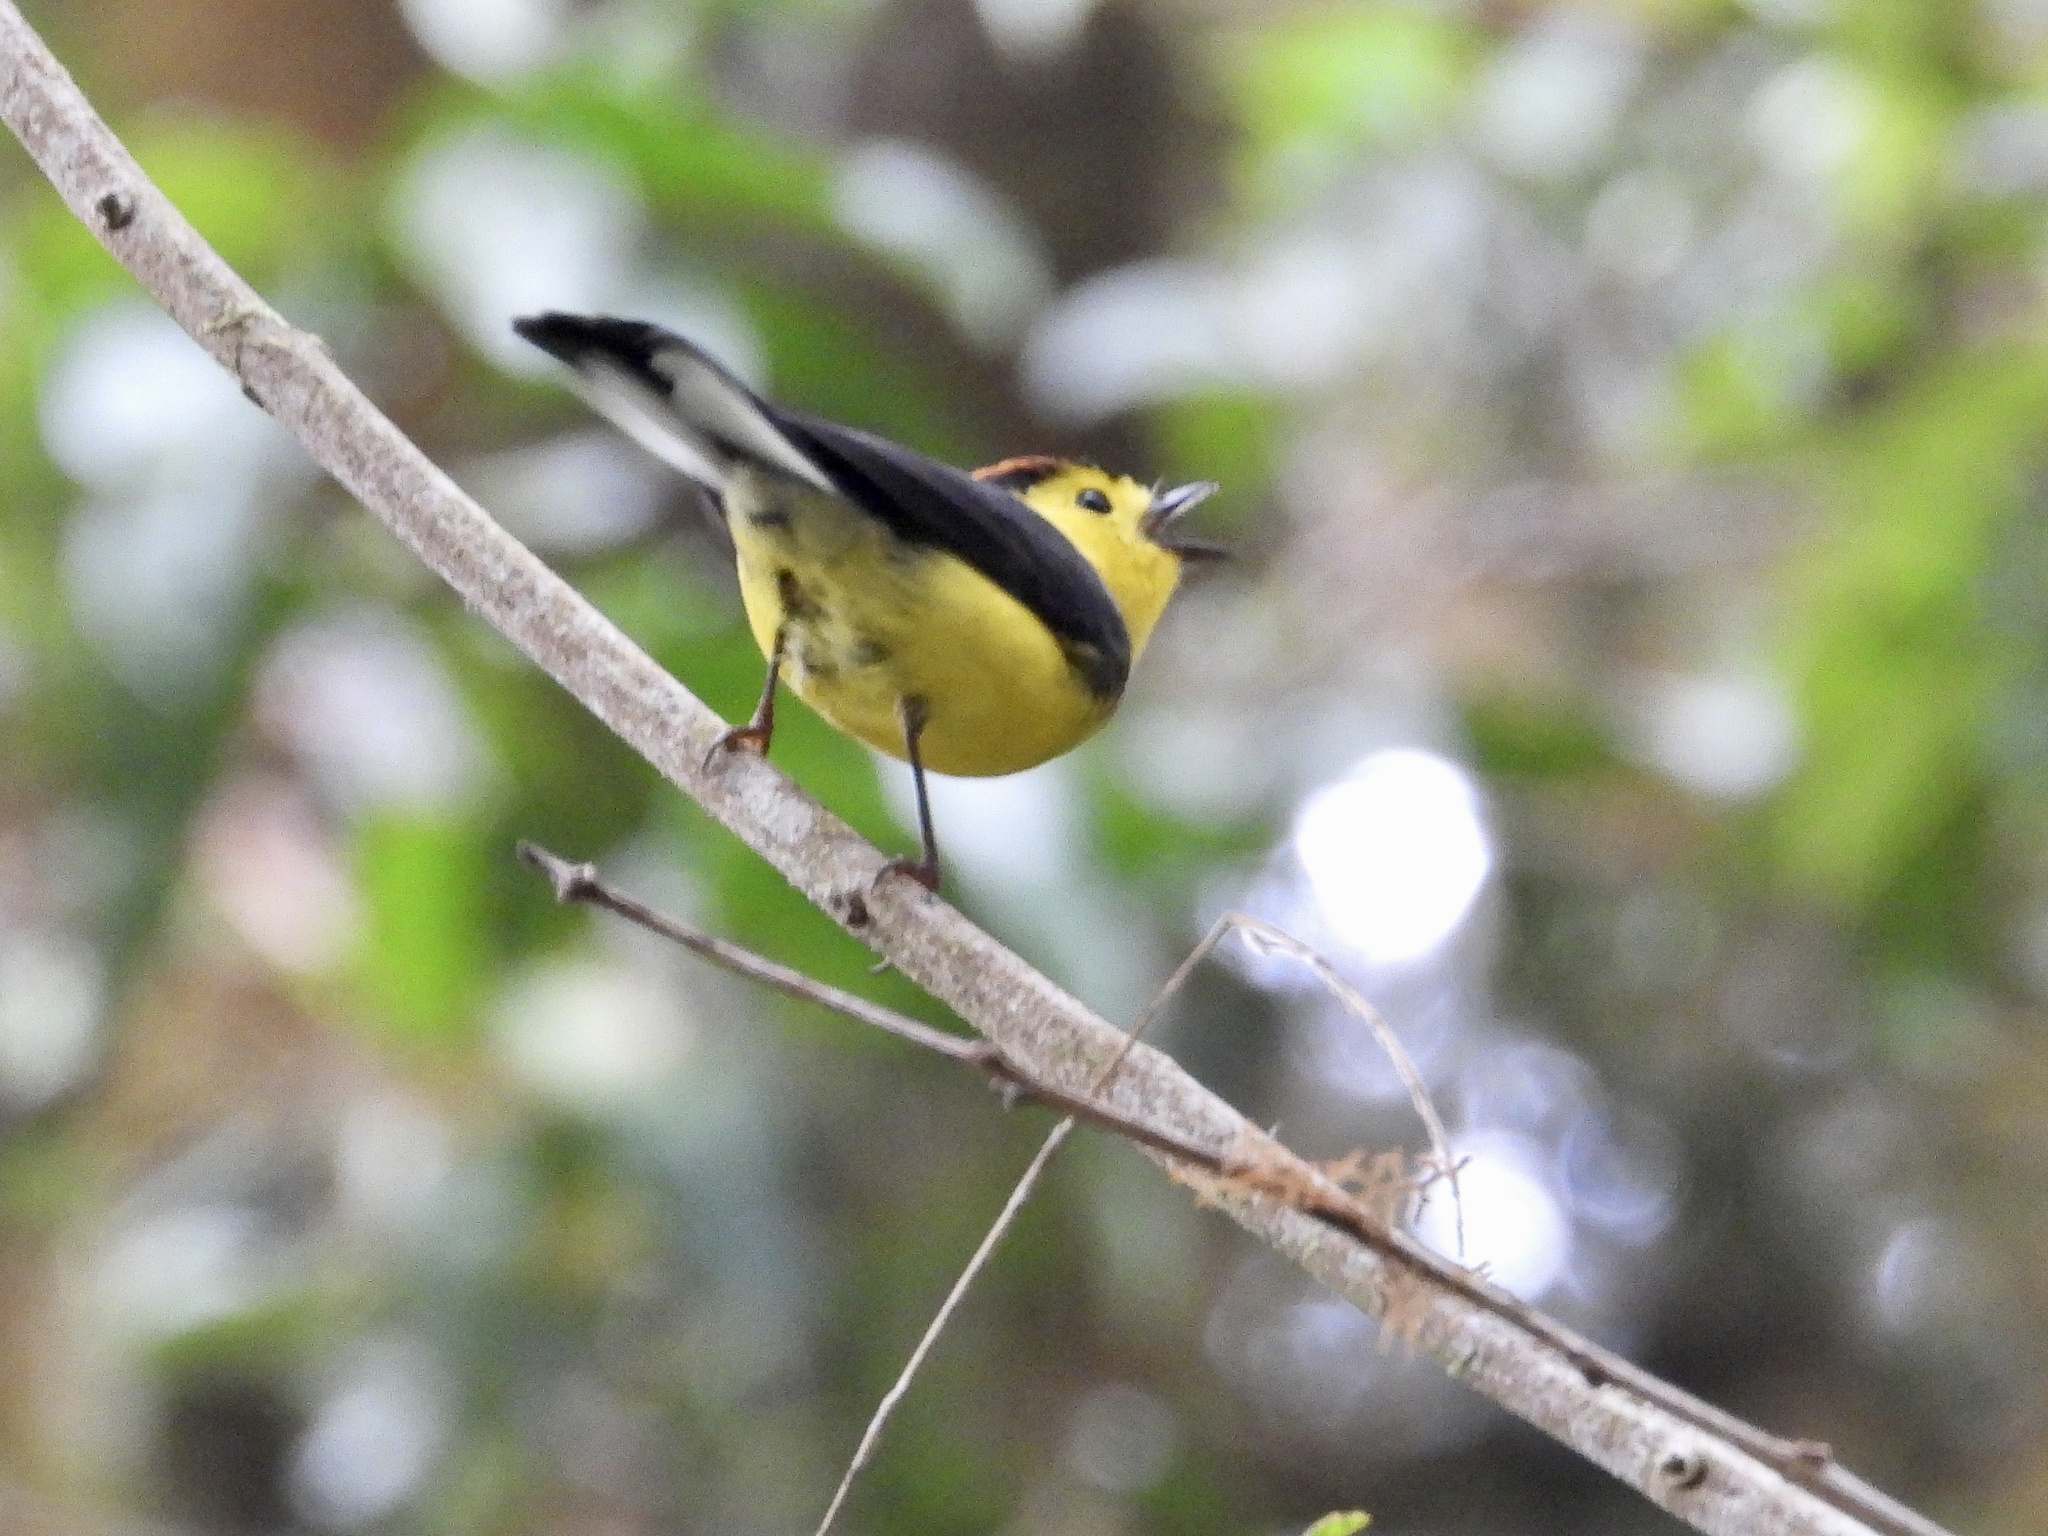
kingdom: Animalia
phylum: Chordata
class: Aves
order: Passeriformes
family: Parulidae
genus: Myioborus
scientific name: Myioborus torquatus
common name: Collared whitestart
